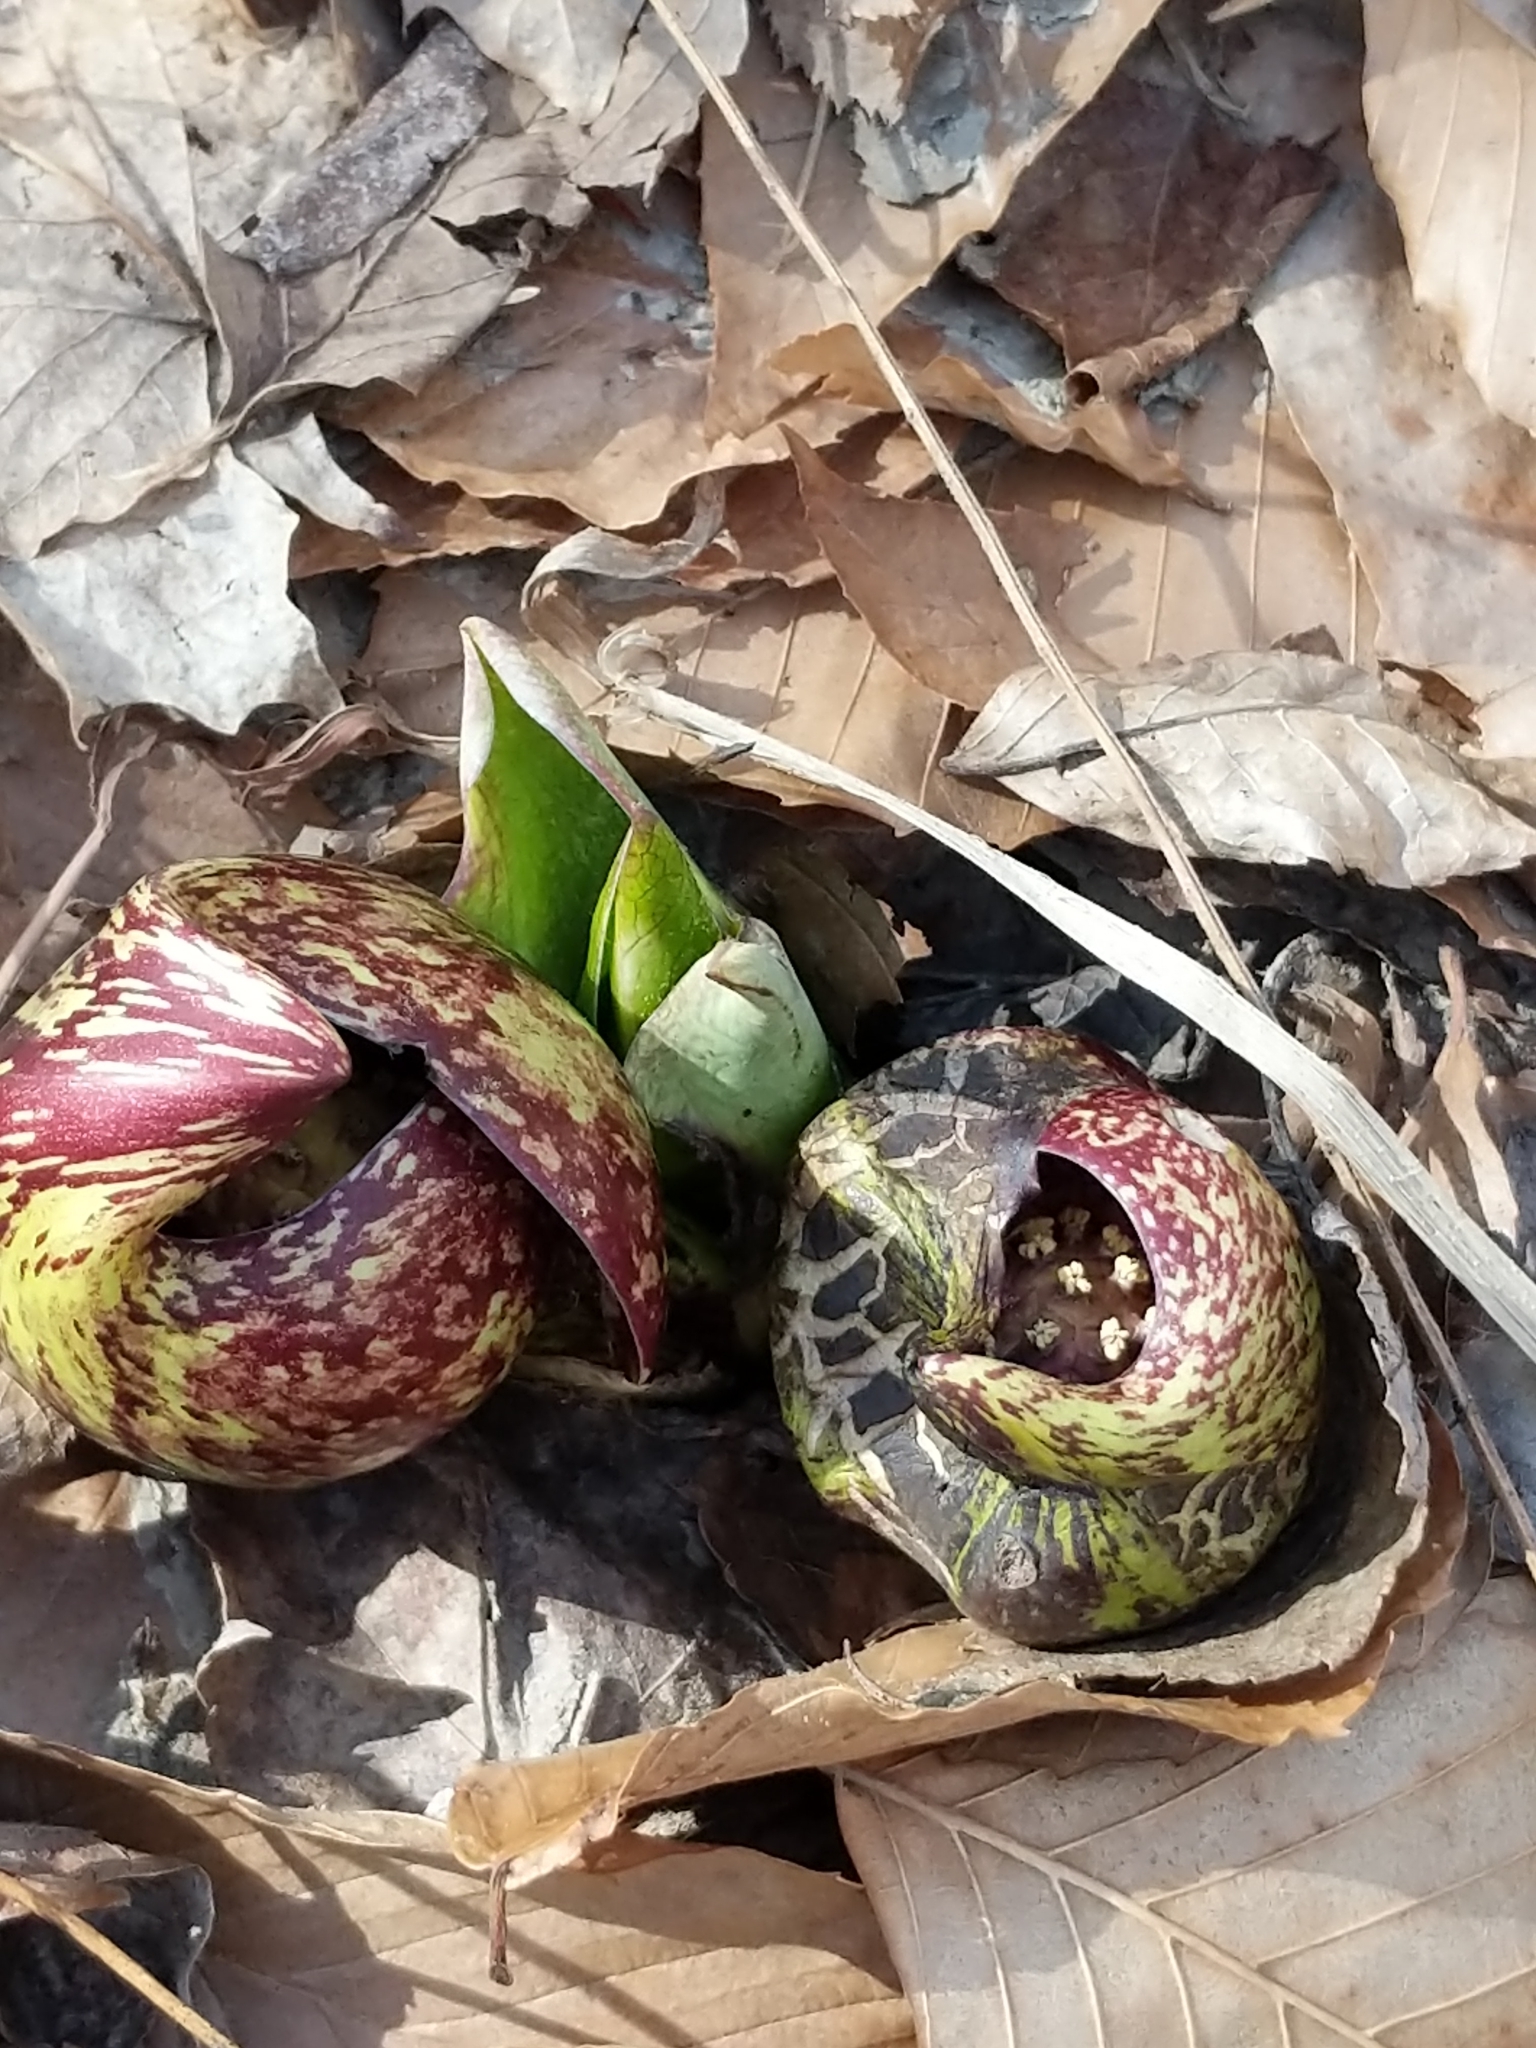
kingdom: Plantae
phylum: Tracheophyta
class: Liliopsida
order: Alismatales
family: Araceae
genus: Symplocarpus
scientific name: Symplocarpus foetidus
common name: Eastern skunk cabbage
